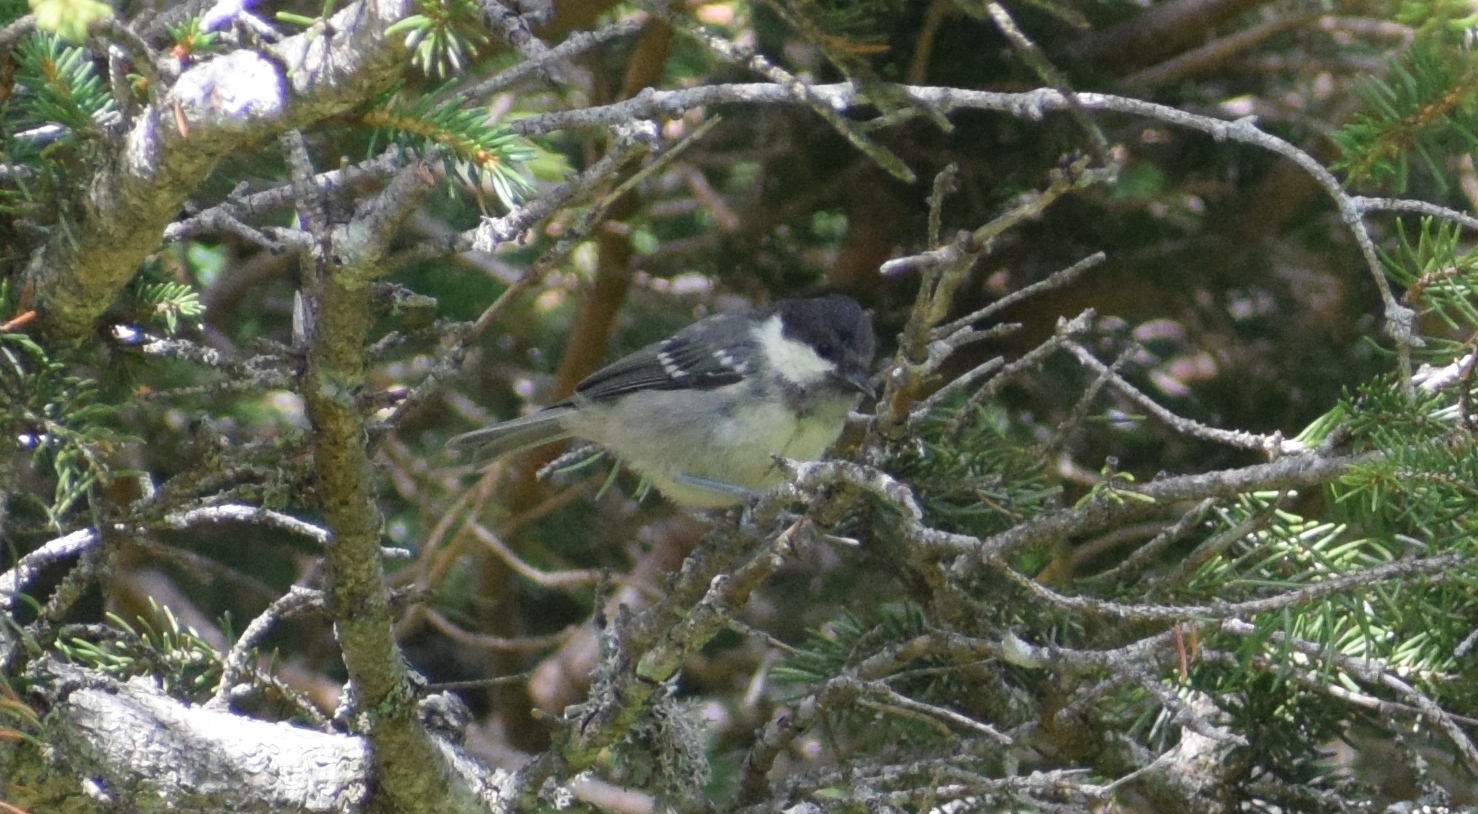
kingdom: Animalia
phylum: Chordata
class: Aves
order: Passeriformes
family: Paridae
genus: Periparus
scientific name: Periparus ater
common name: Coal tit
